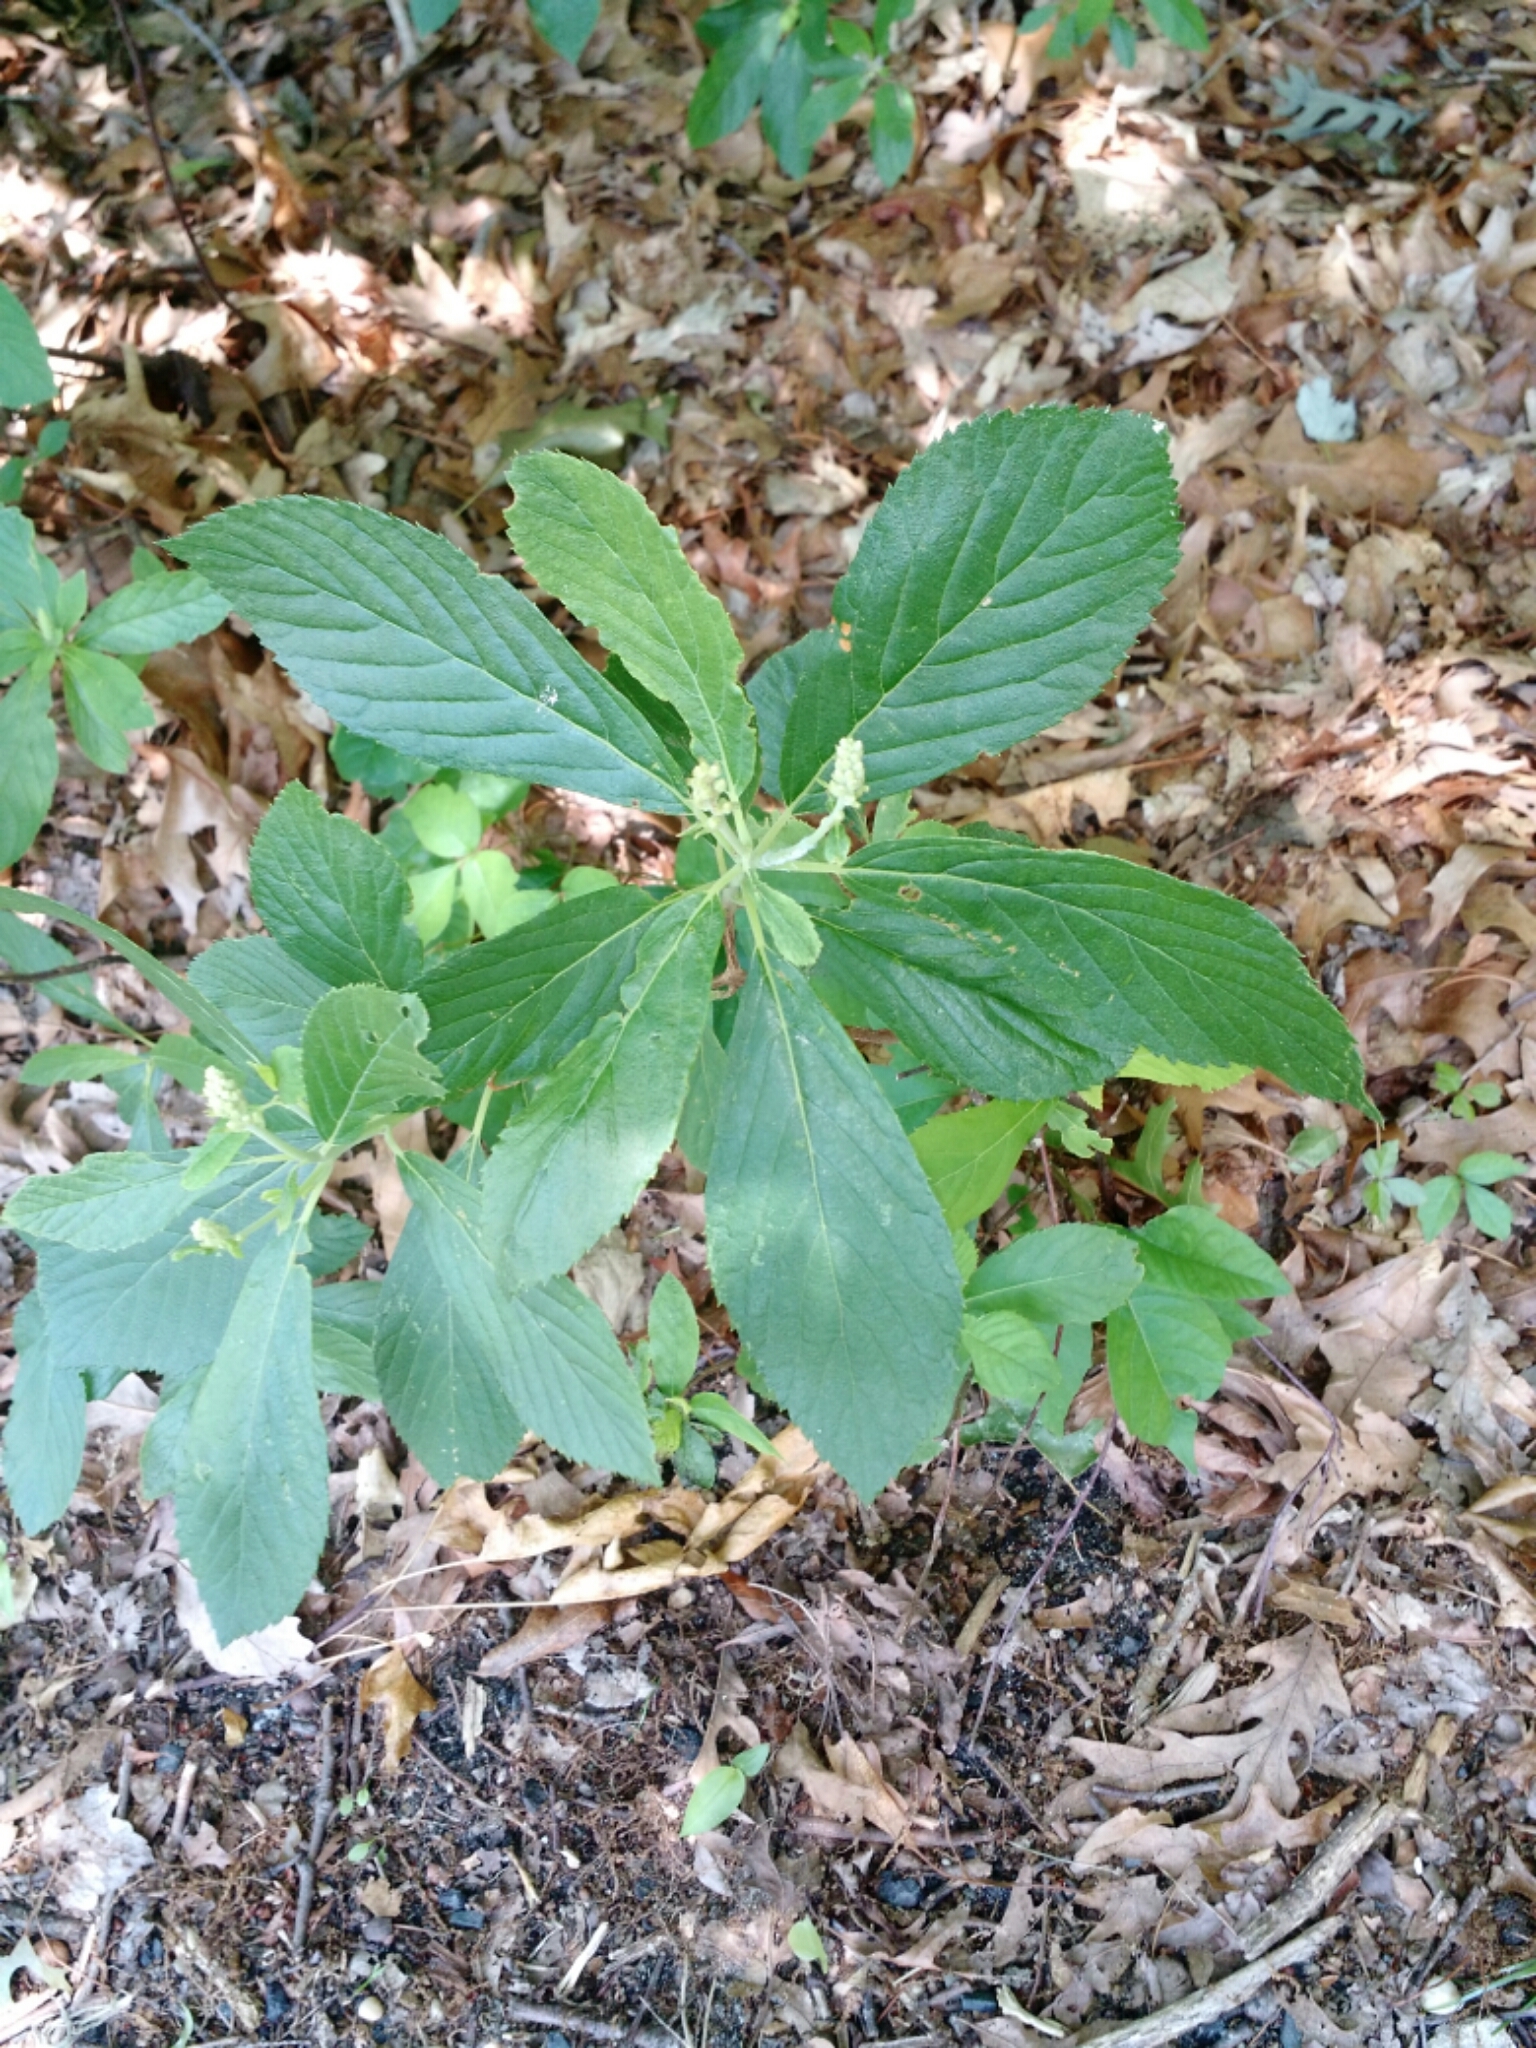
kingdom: Plantae
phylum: Tracheophyta
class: Magnoliopsida
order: Ericales
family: Clethraceae
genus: Clethra
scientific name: Clethra alnifolia
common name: Sweet pepperbush
